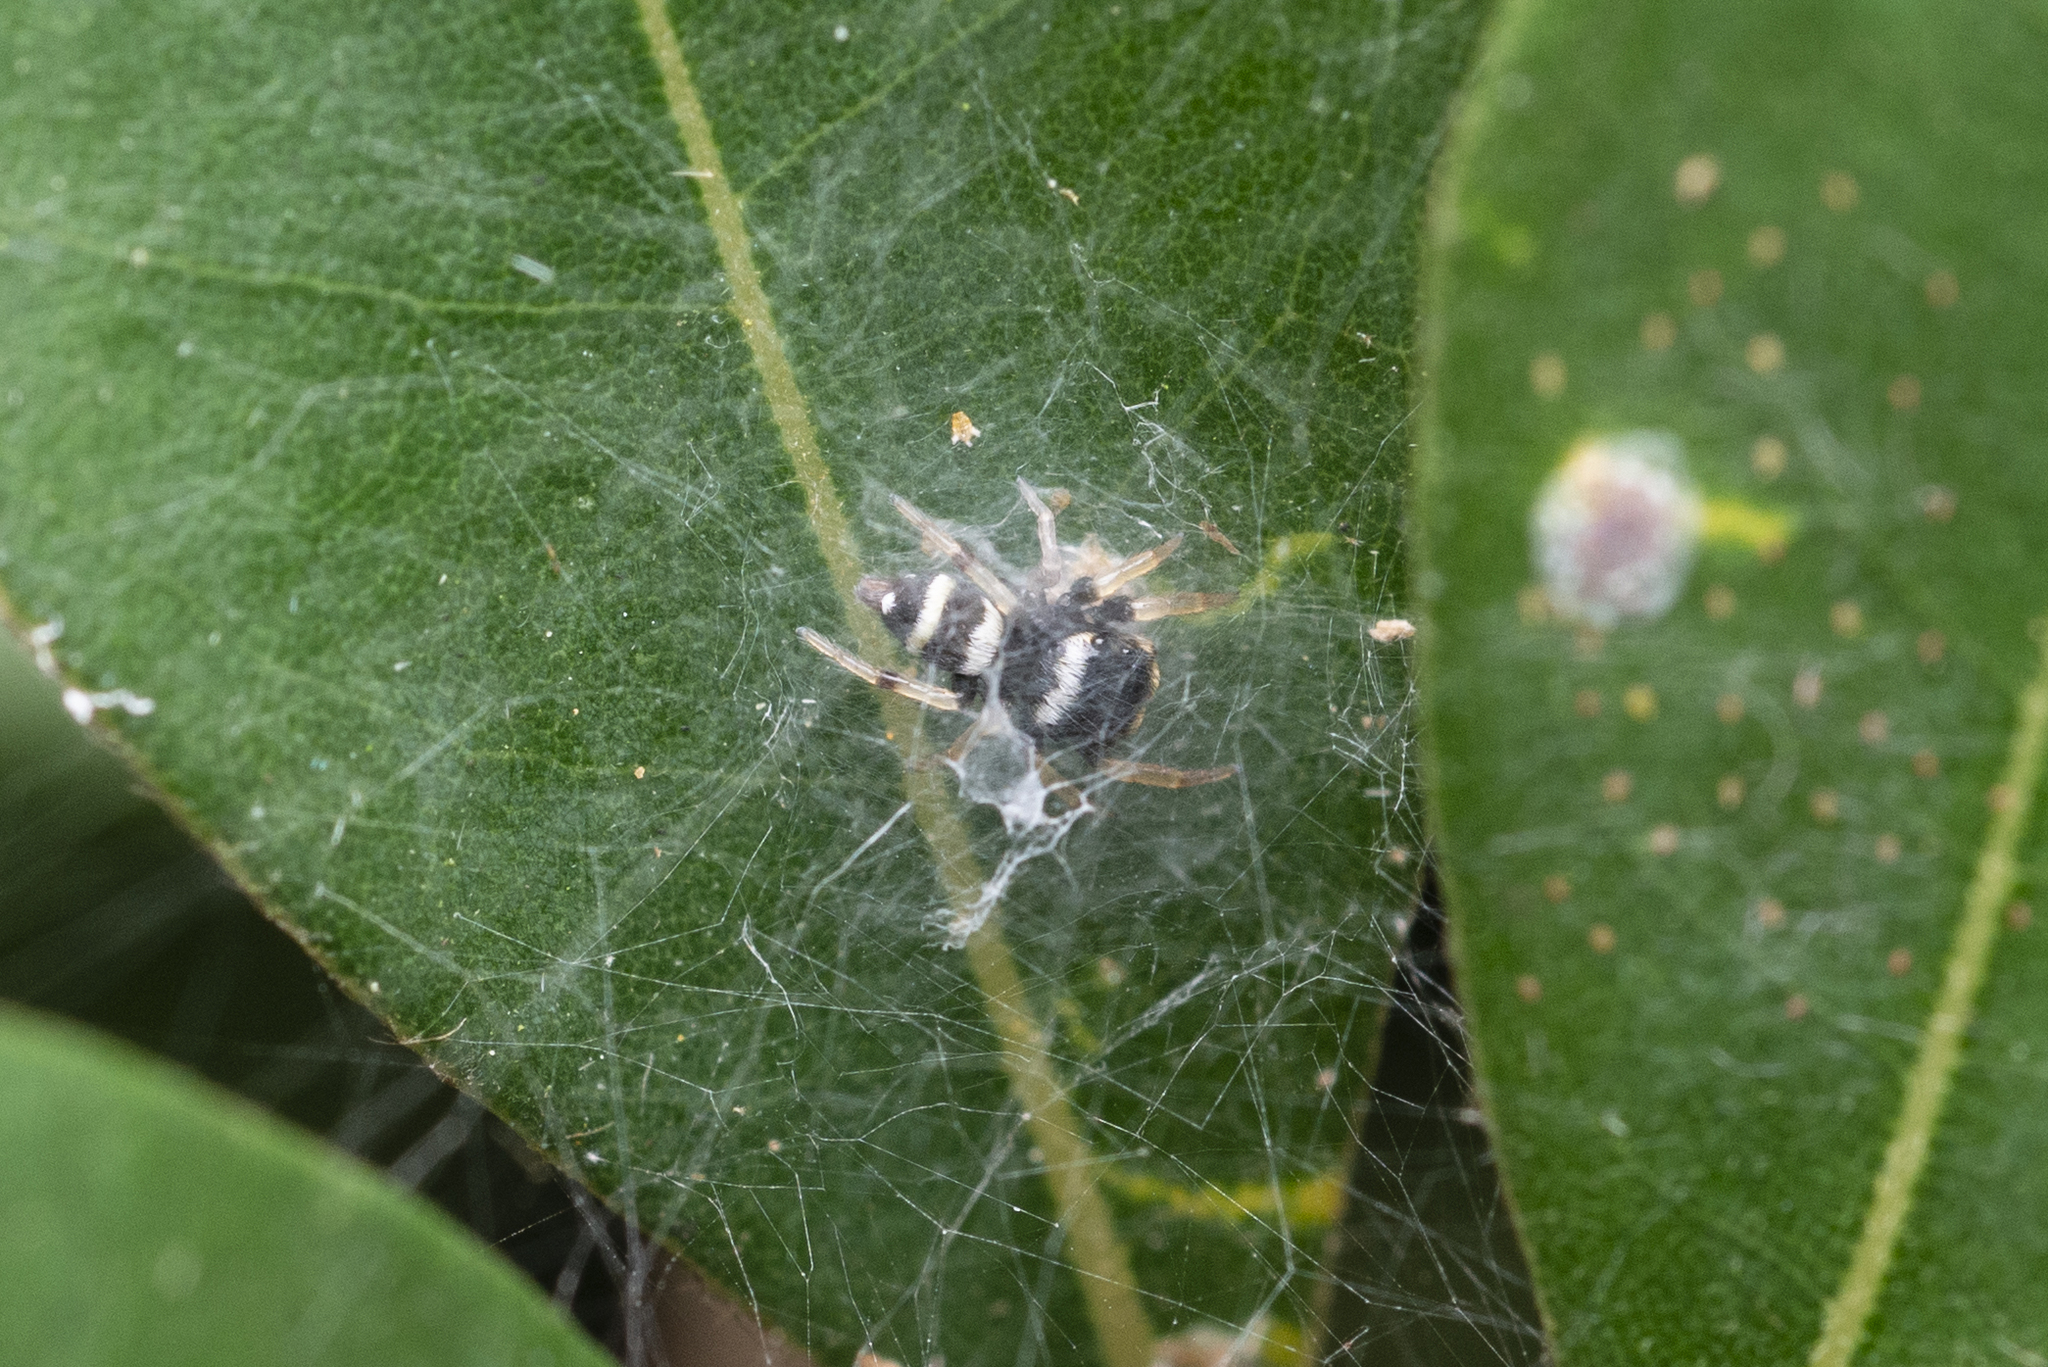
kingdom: Animalia
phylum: Arthropoda
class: Arachnida
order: Araneae
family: Salticidae
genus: Ptocasius
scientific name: Ptocasius strupifer
